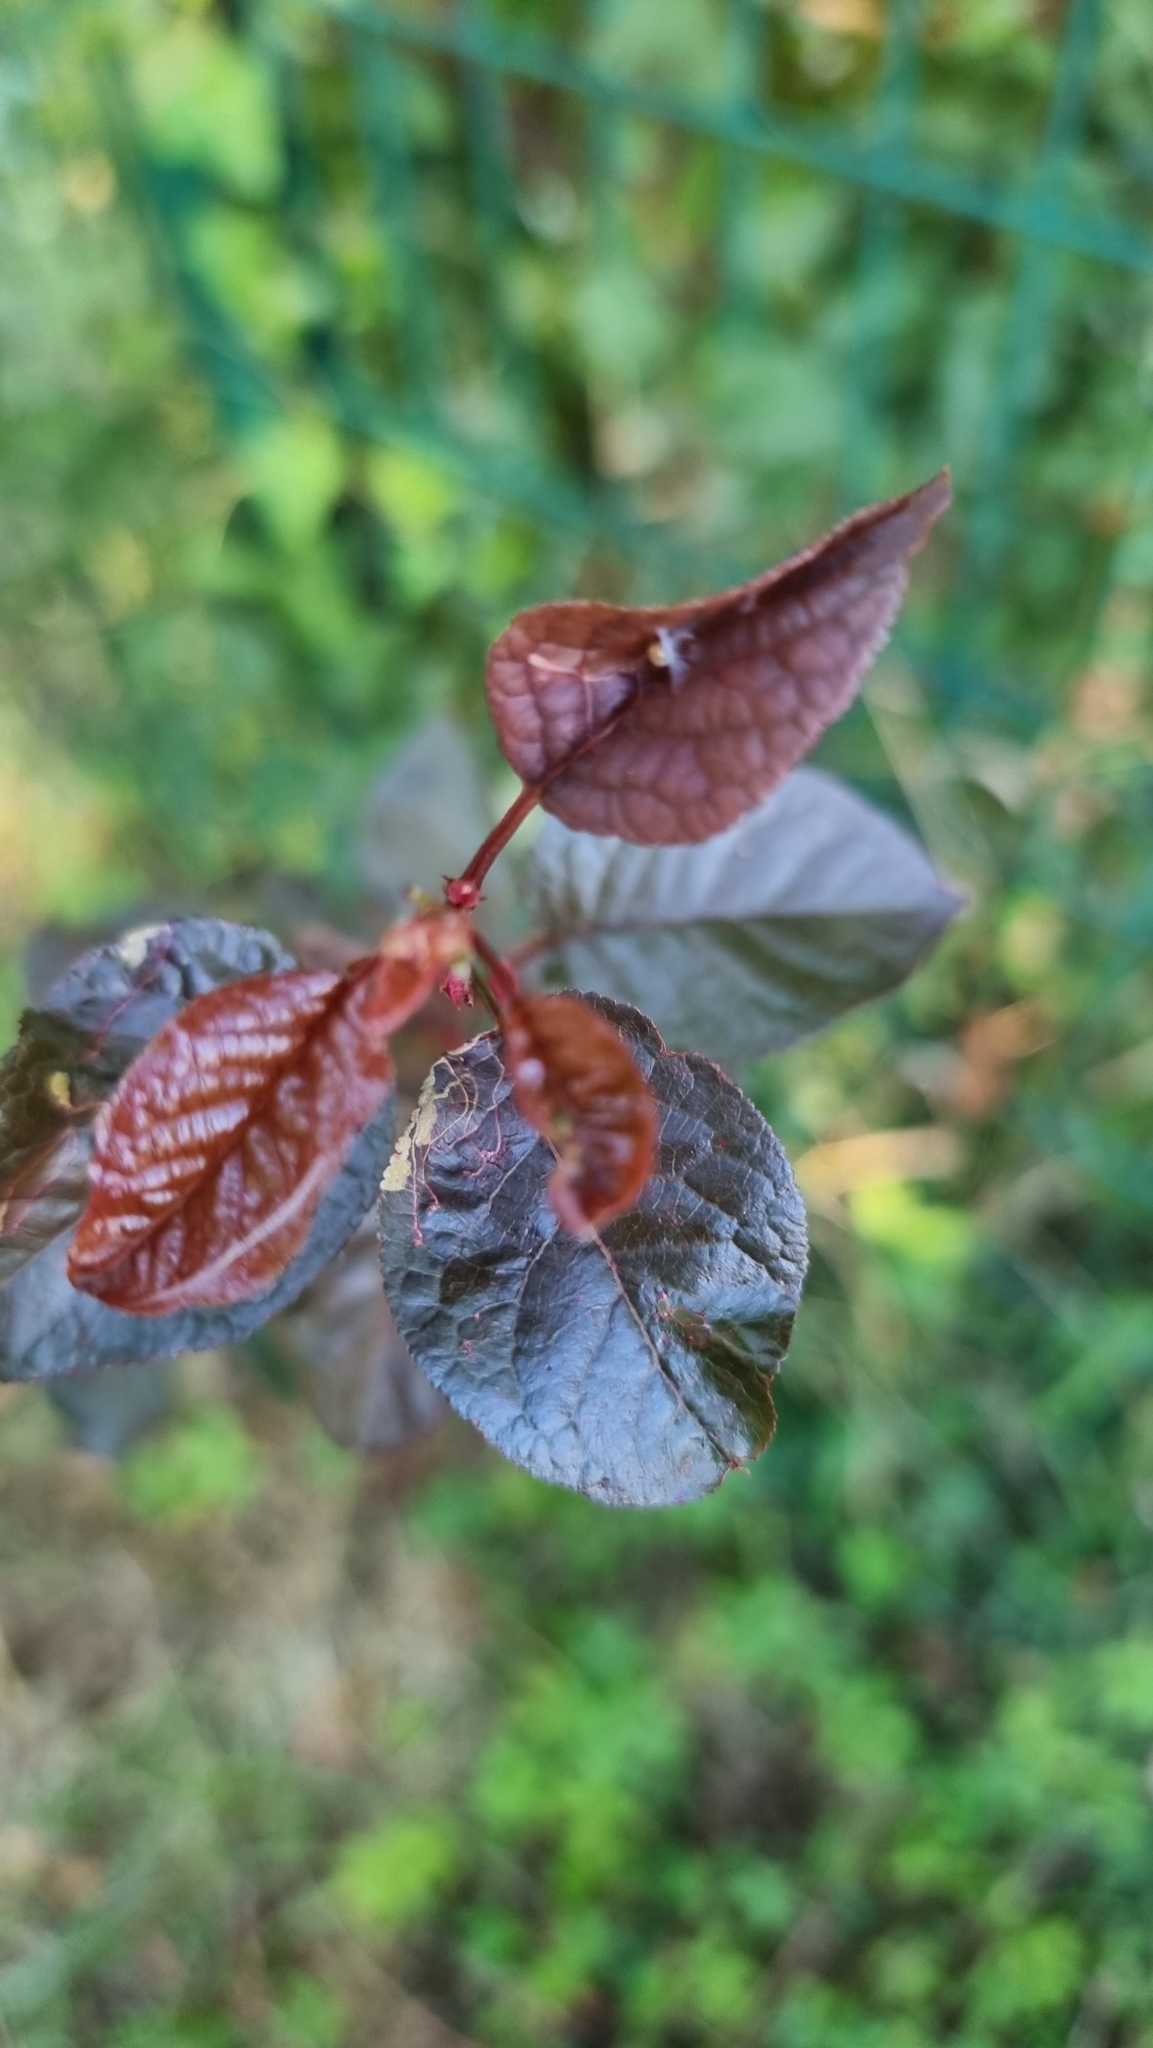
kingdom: Plantae
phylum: Tracheophyta
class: Magnoliopsida
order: Rosales
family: Rosaceae
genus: Prunus
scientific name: Prunus cerasifera
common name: Cherry plum
